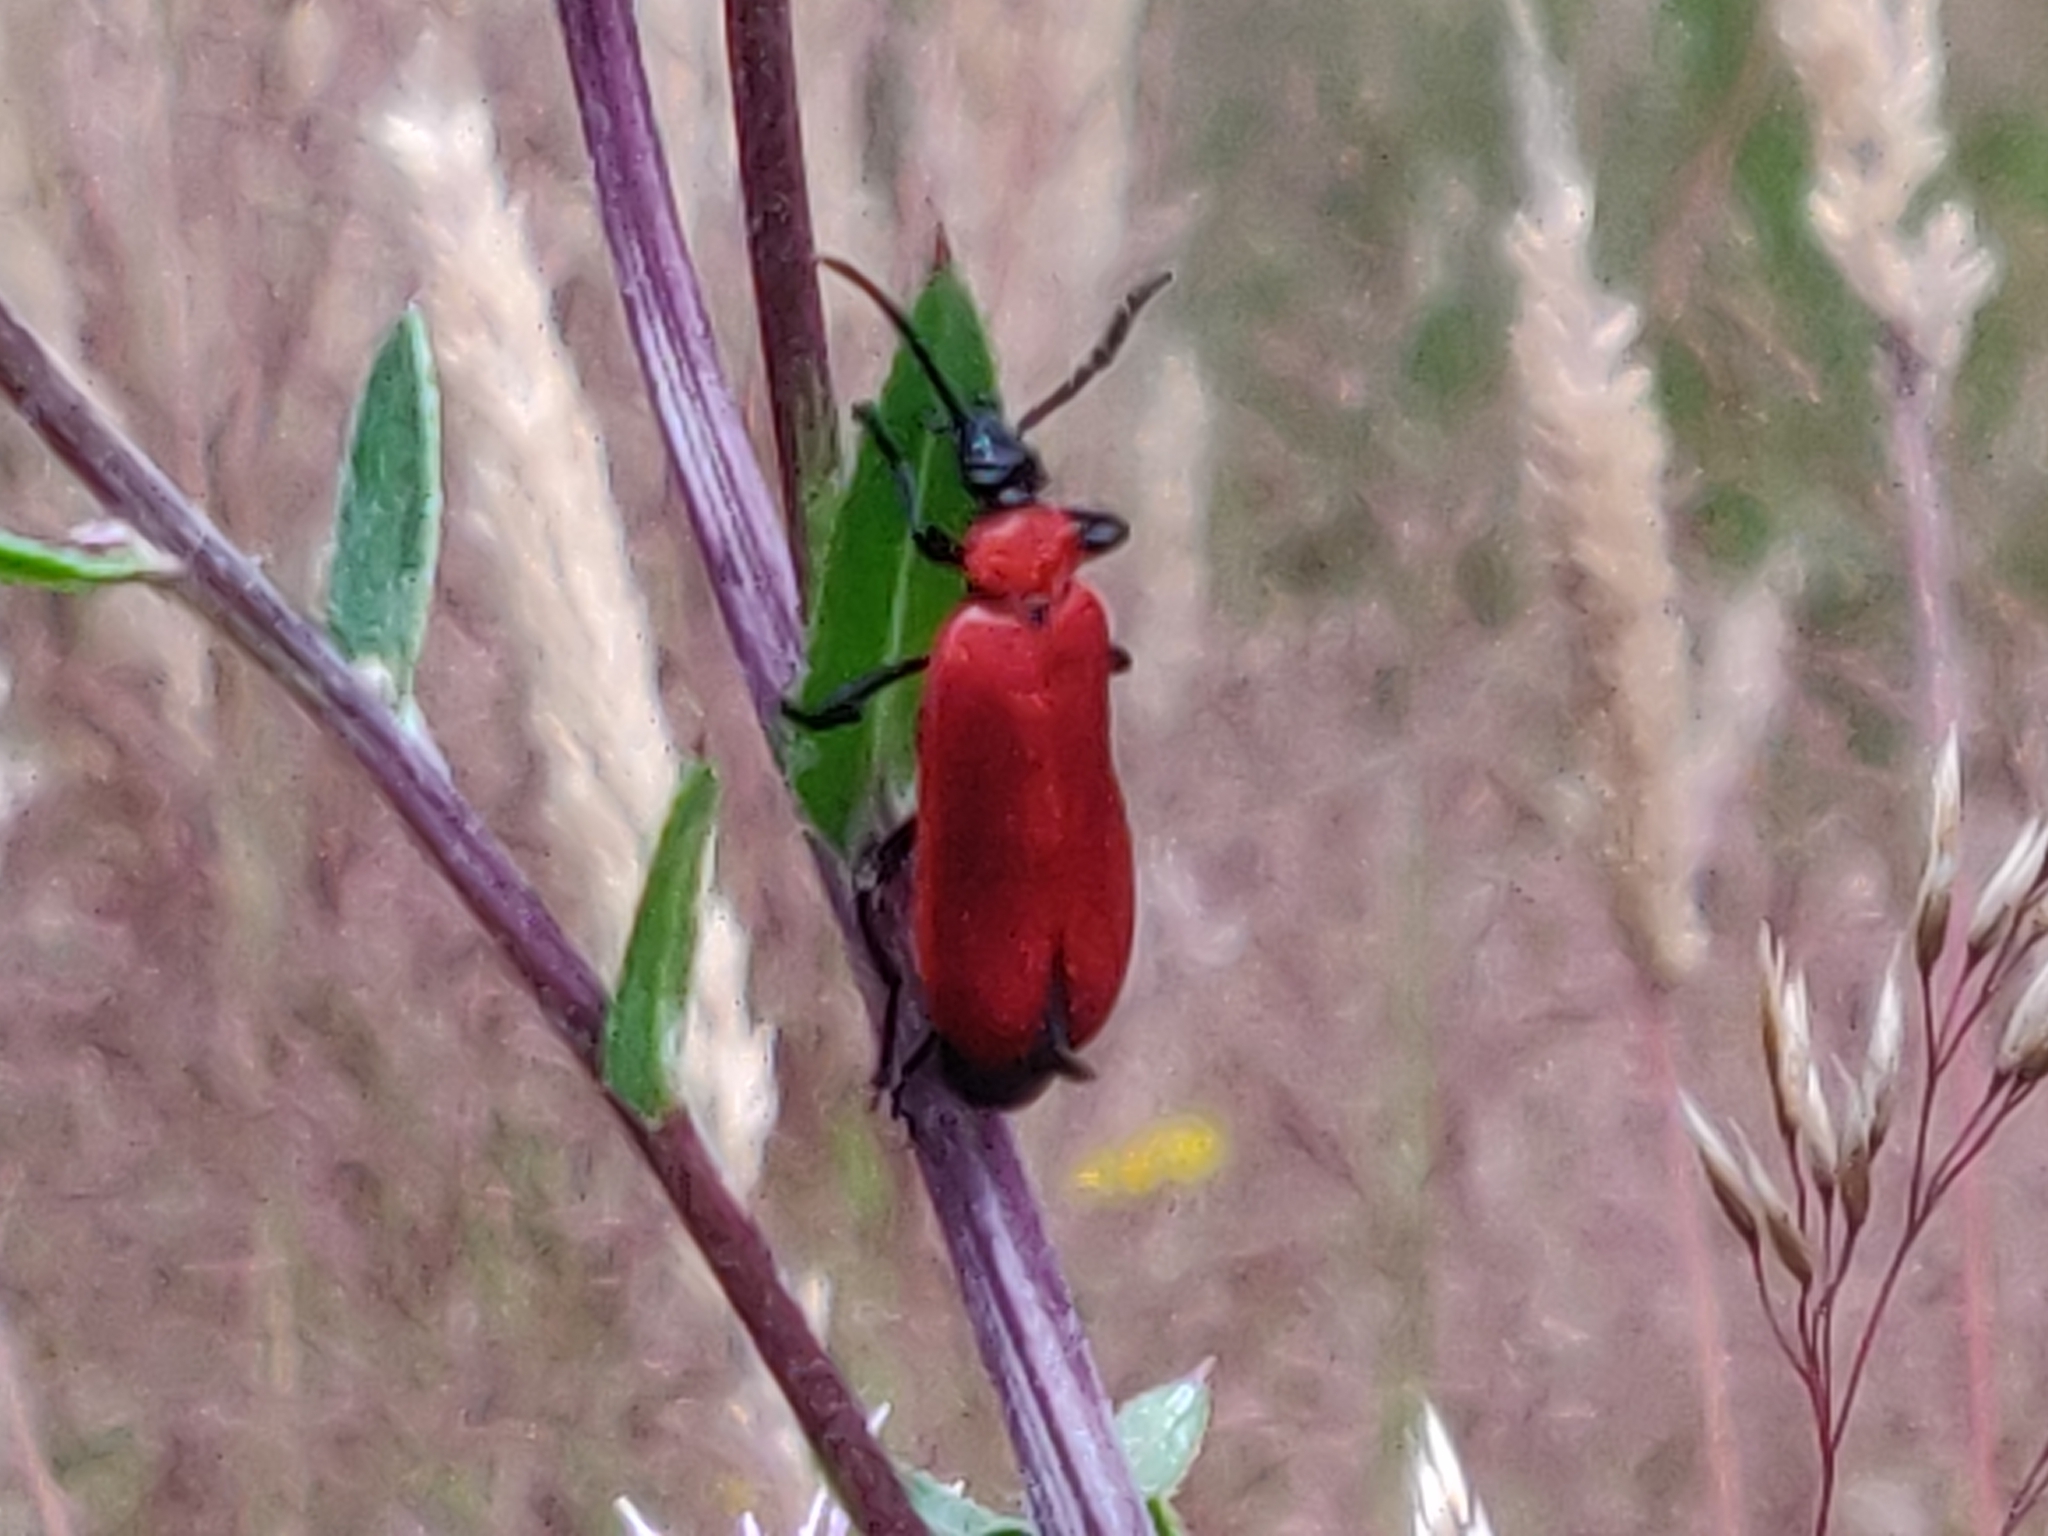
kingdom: Animalia
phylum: Arthropoda
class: Insecta
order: Coleoptera
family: Pyrochroidae
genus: Pyrochroa
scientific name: Pyrochroa coccinea
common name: Black-headed cardinal beetle
